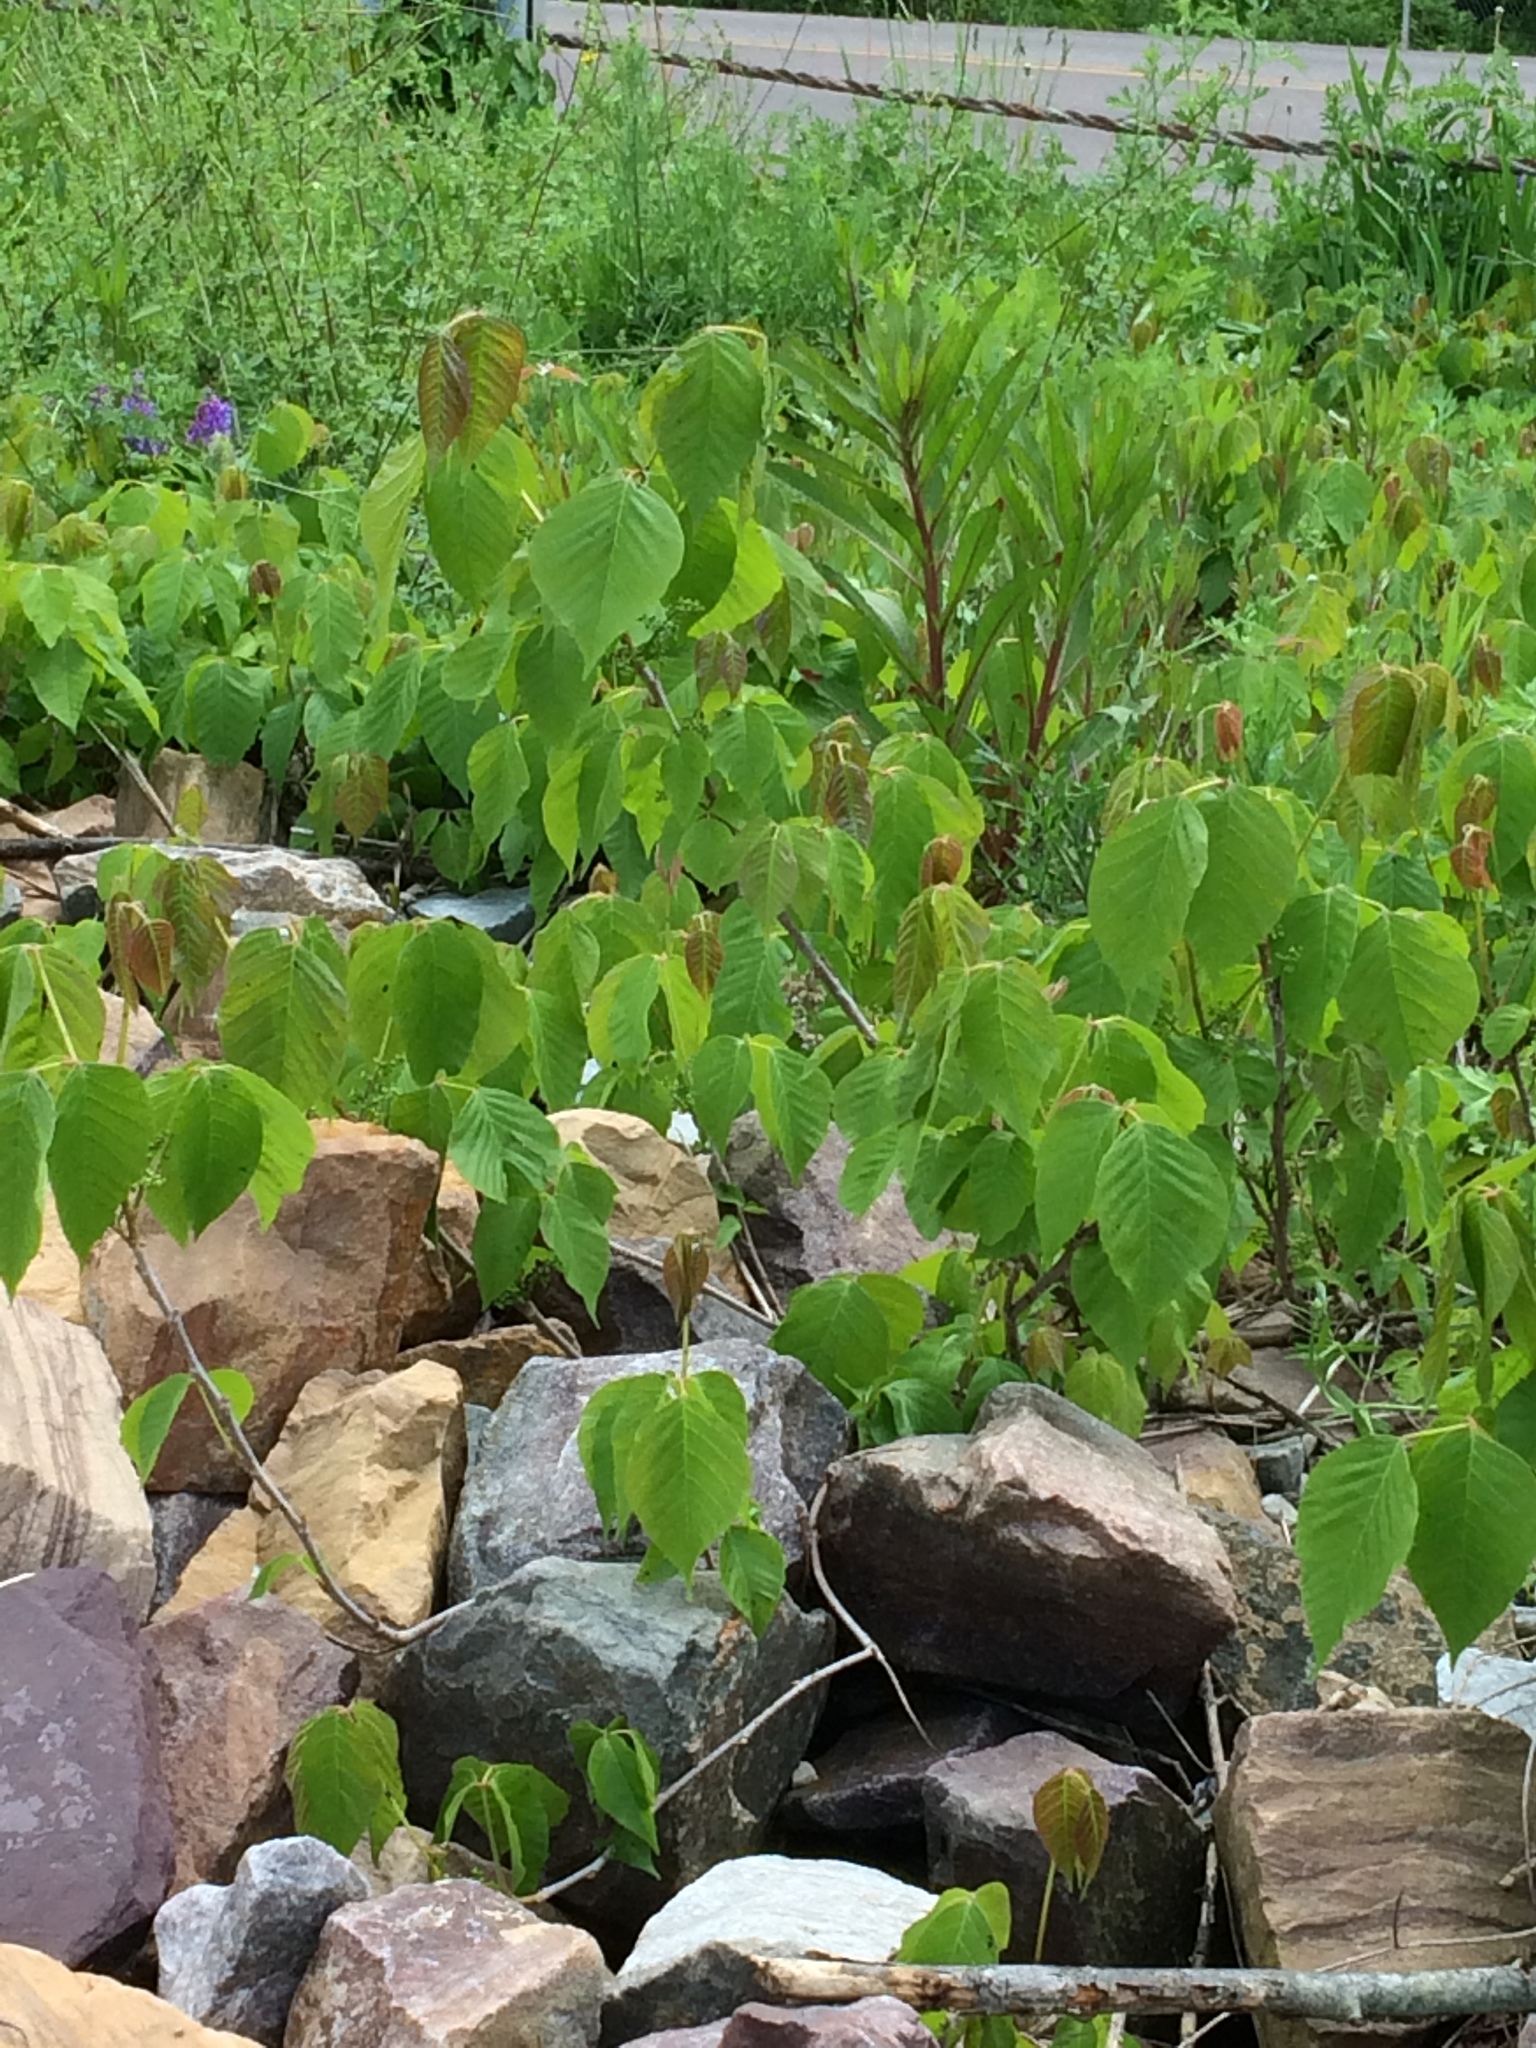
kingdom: Plantae
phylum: Tracheophyta
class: Magnoliopsida
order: Sapindales
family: Anacardiaceae
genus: Toxicodendron
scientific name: Toxicodendron rydbergii
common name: Rydberg's poison-ivy
